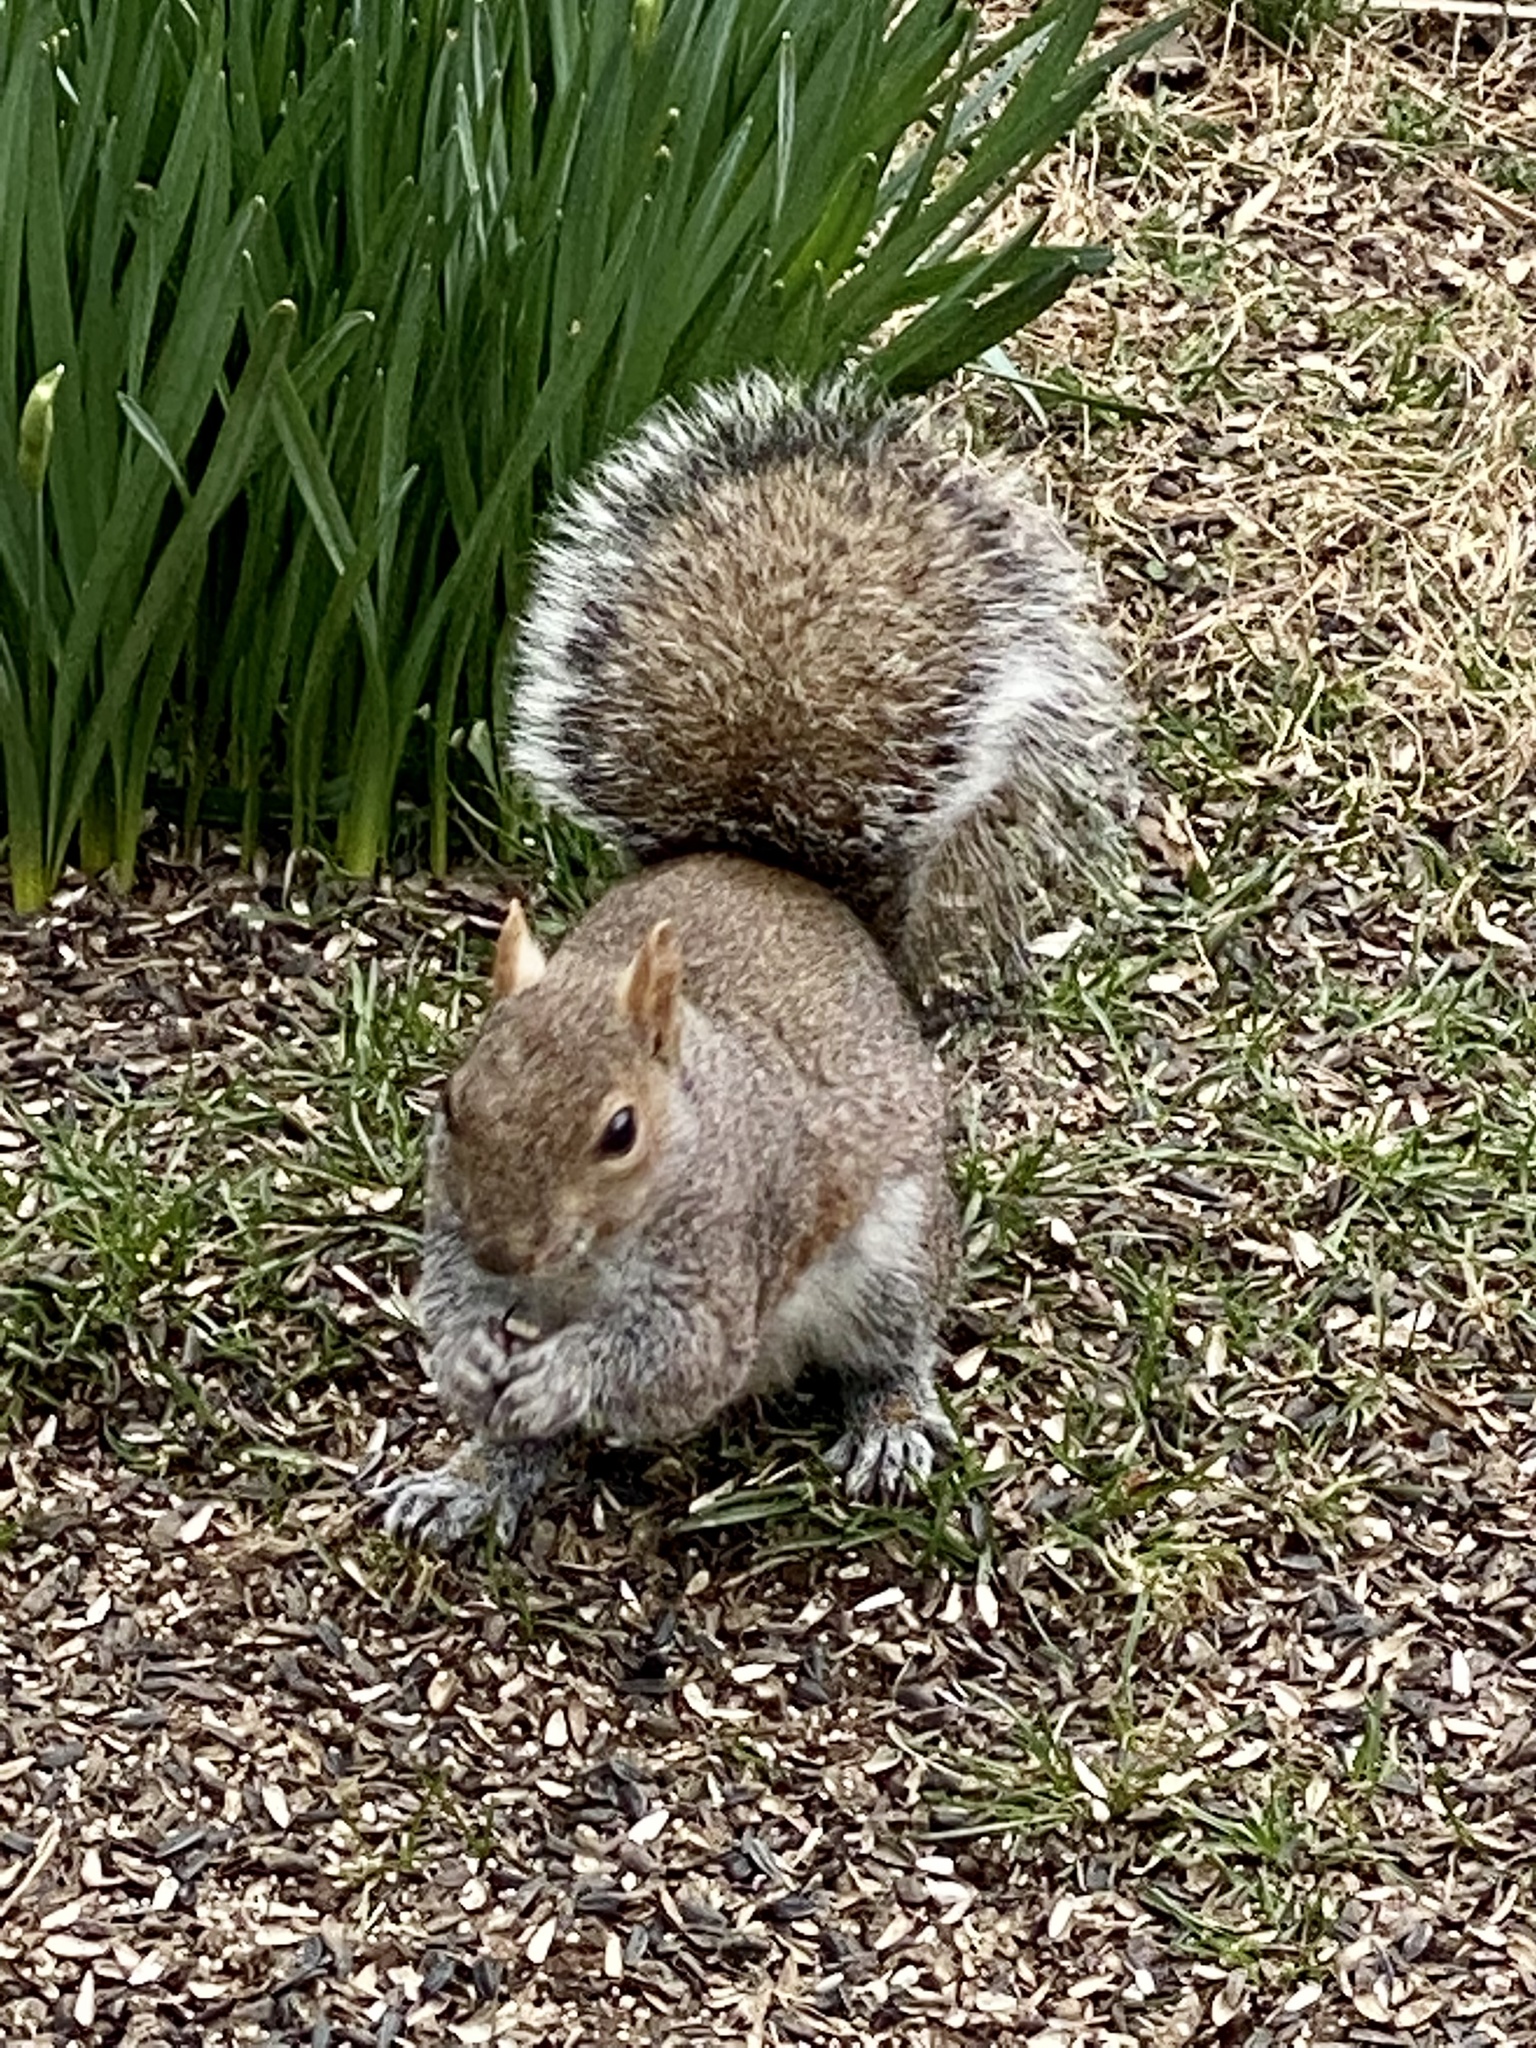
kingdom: Animalia
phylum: Chordata
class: Mammalia
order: Rodentia
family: Sciuridae
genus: Sciurus
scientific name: Sciurus carolinensis
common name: Eastern gray squirrel
